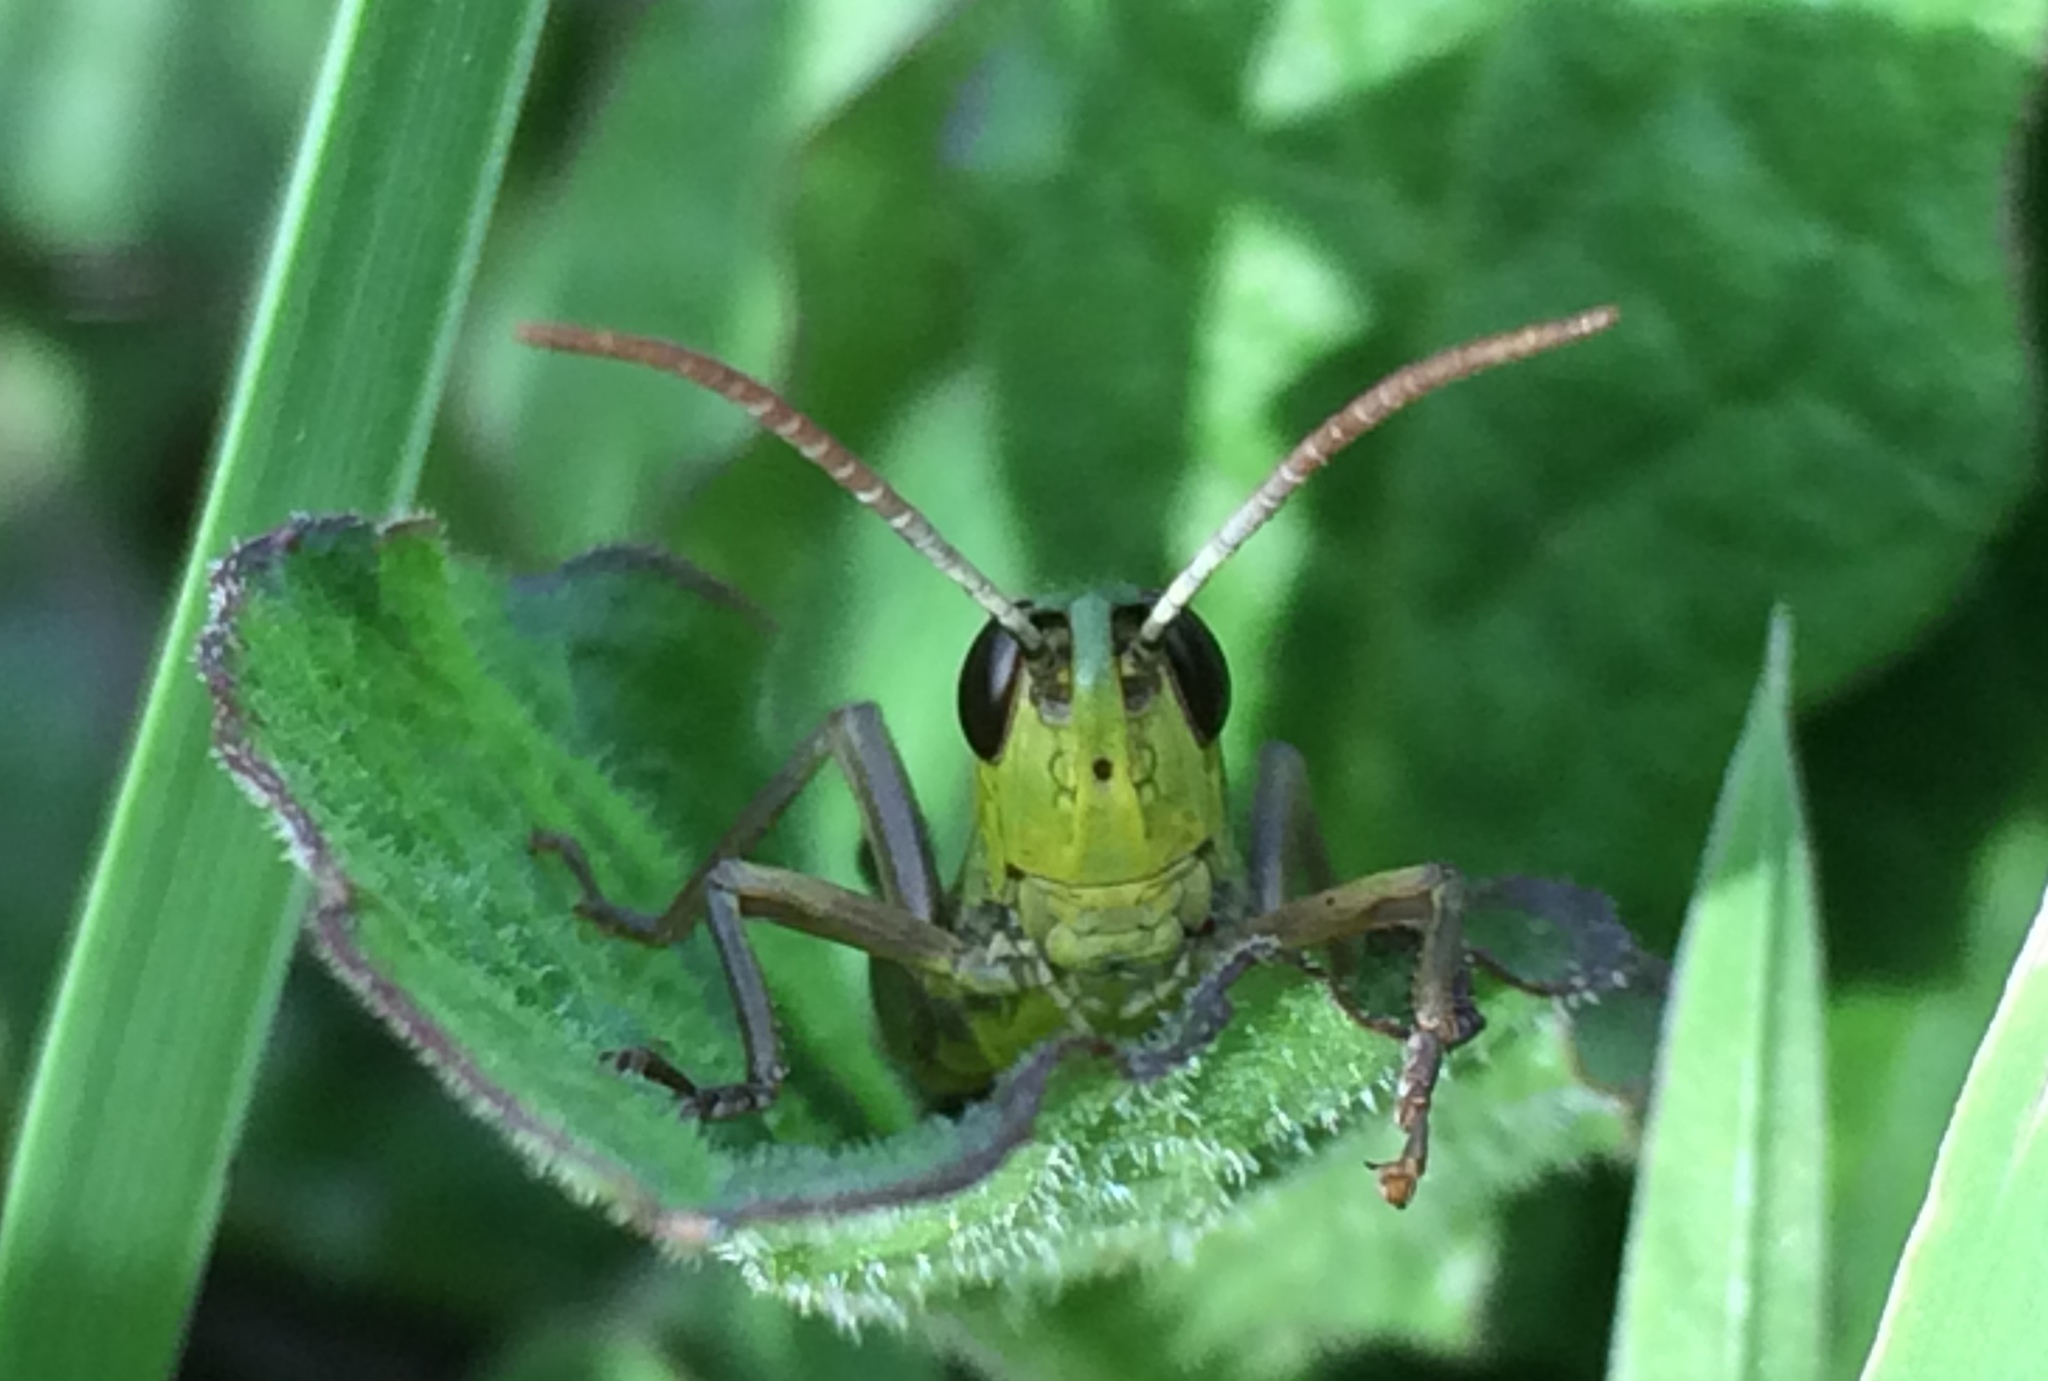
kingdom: Animalia
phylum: Arthropoda
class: Insecta
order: Orthoptera
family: Acrididae
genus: Pseudochorthippus
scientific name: Pseudochorthippus parallelus
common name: Meadow grasshopper
